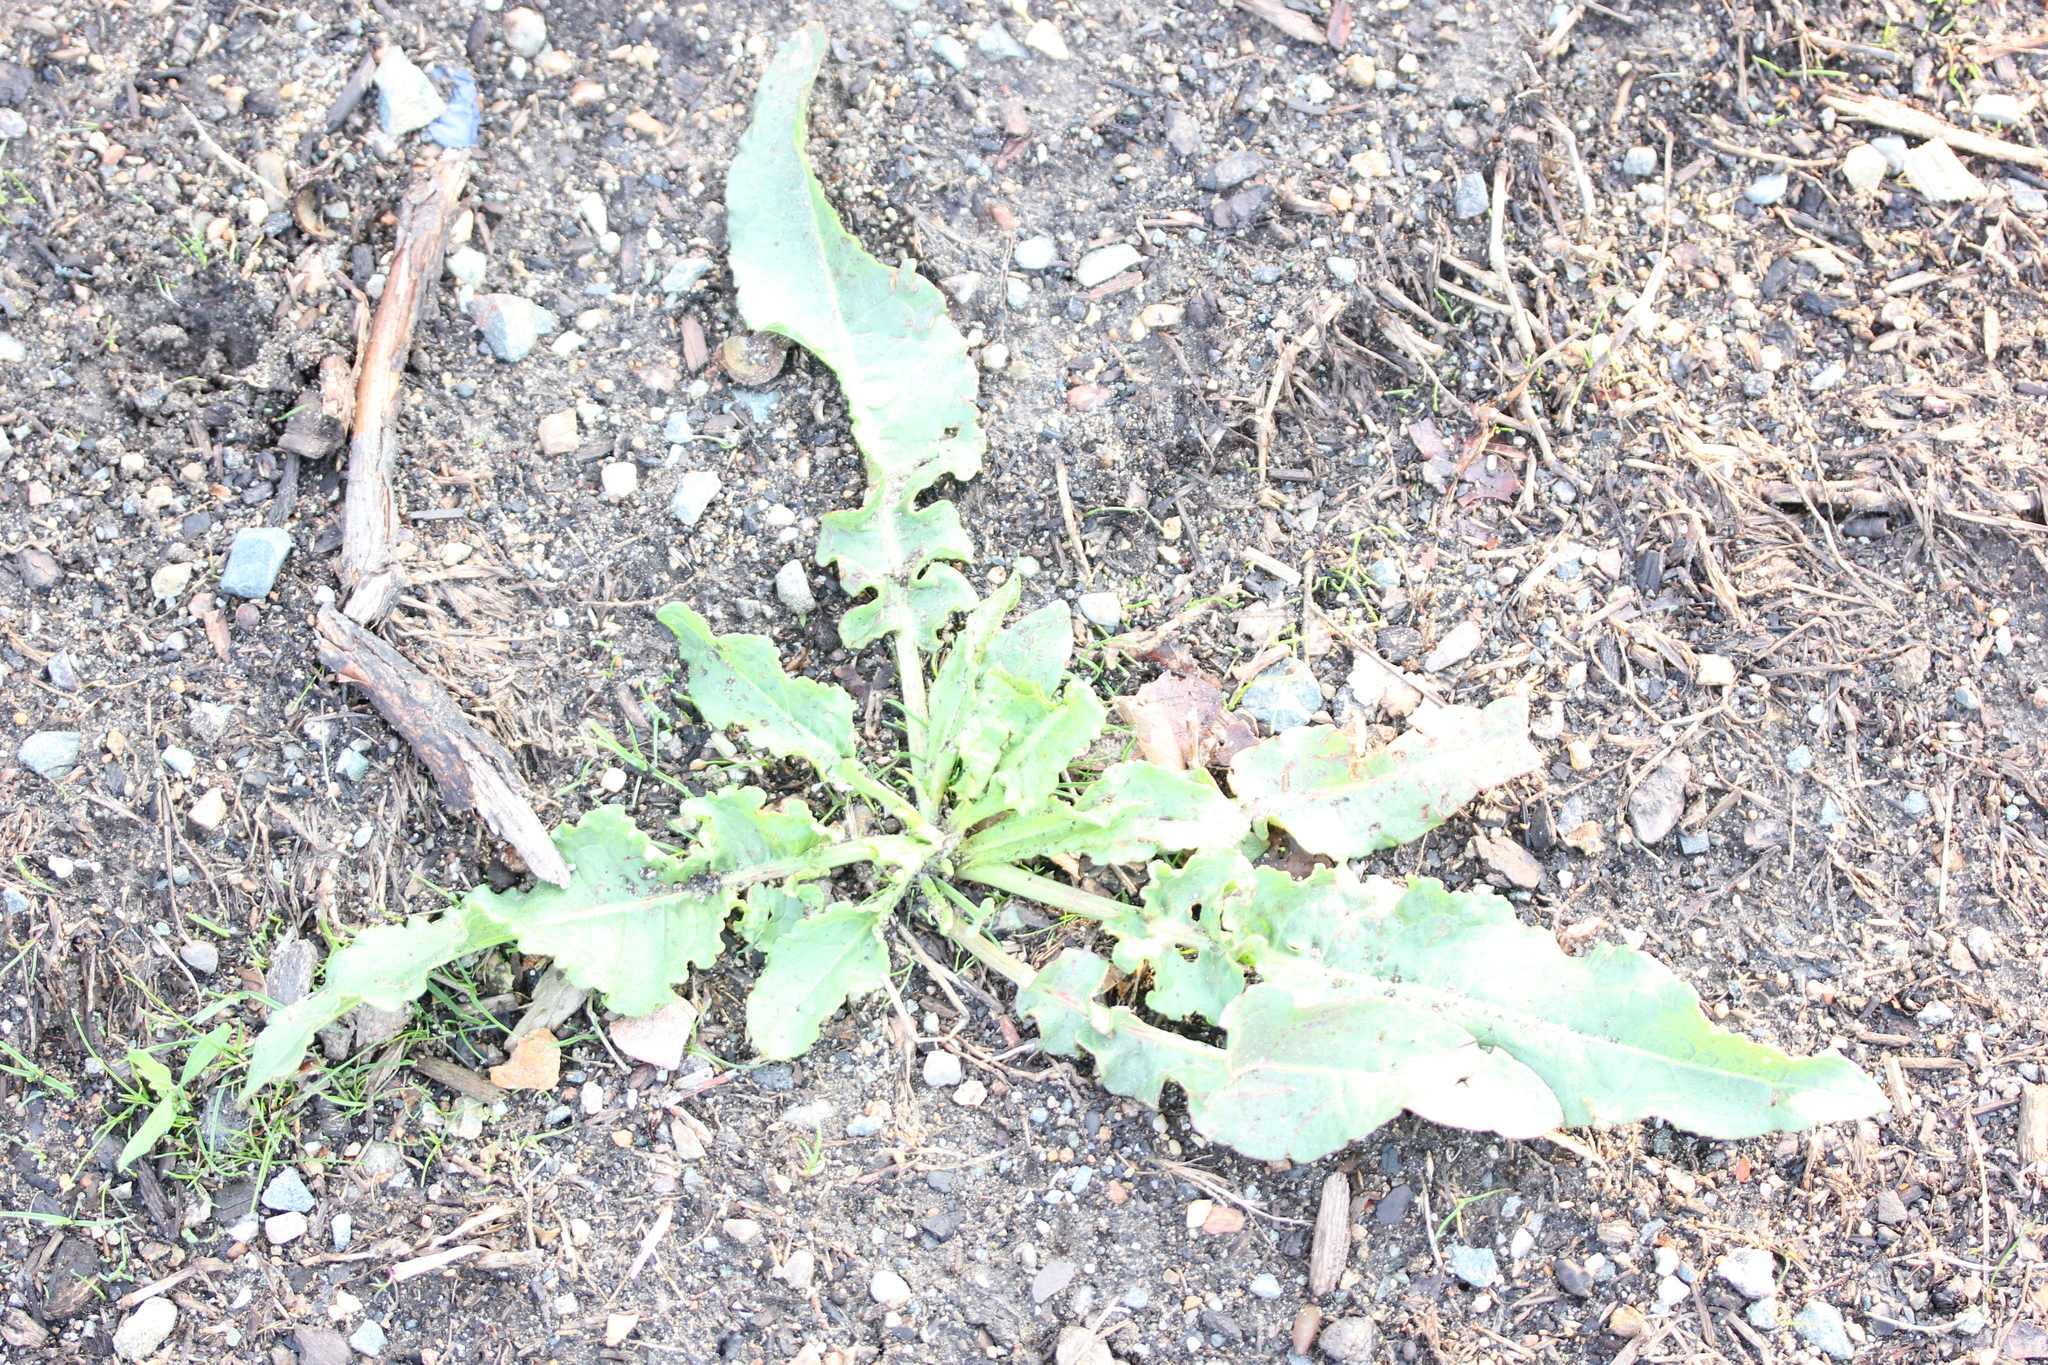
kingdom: Plantae
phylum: Tracheophyta
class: Magnoliopsida
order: Caryophyllales
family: Polygonaceae
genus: Rumex
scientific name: Rumex crispus
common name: Curled dock
